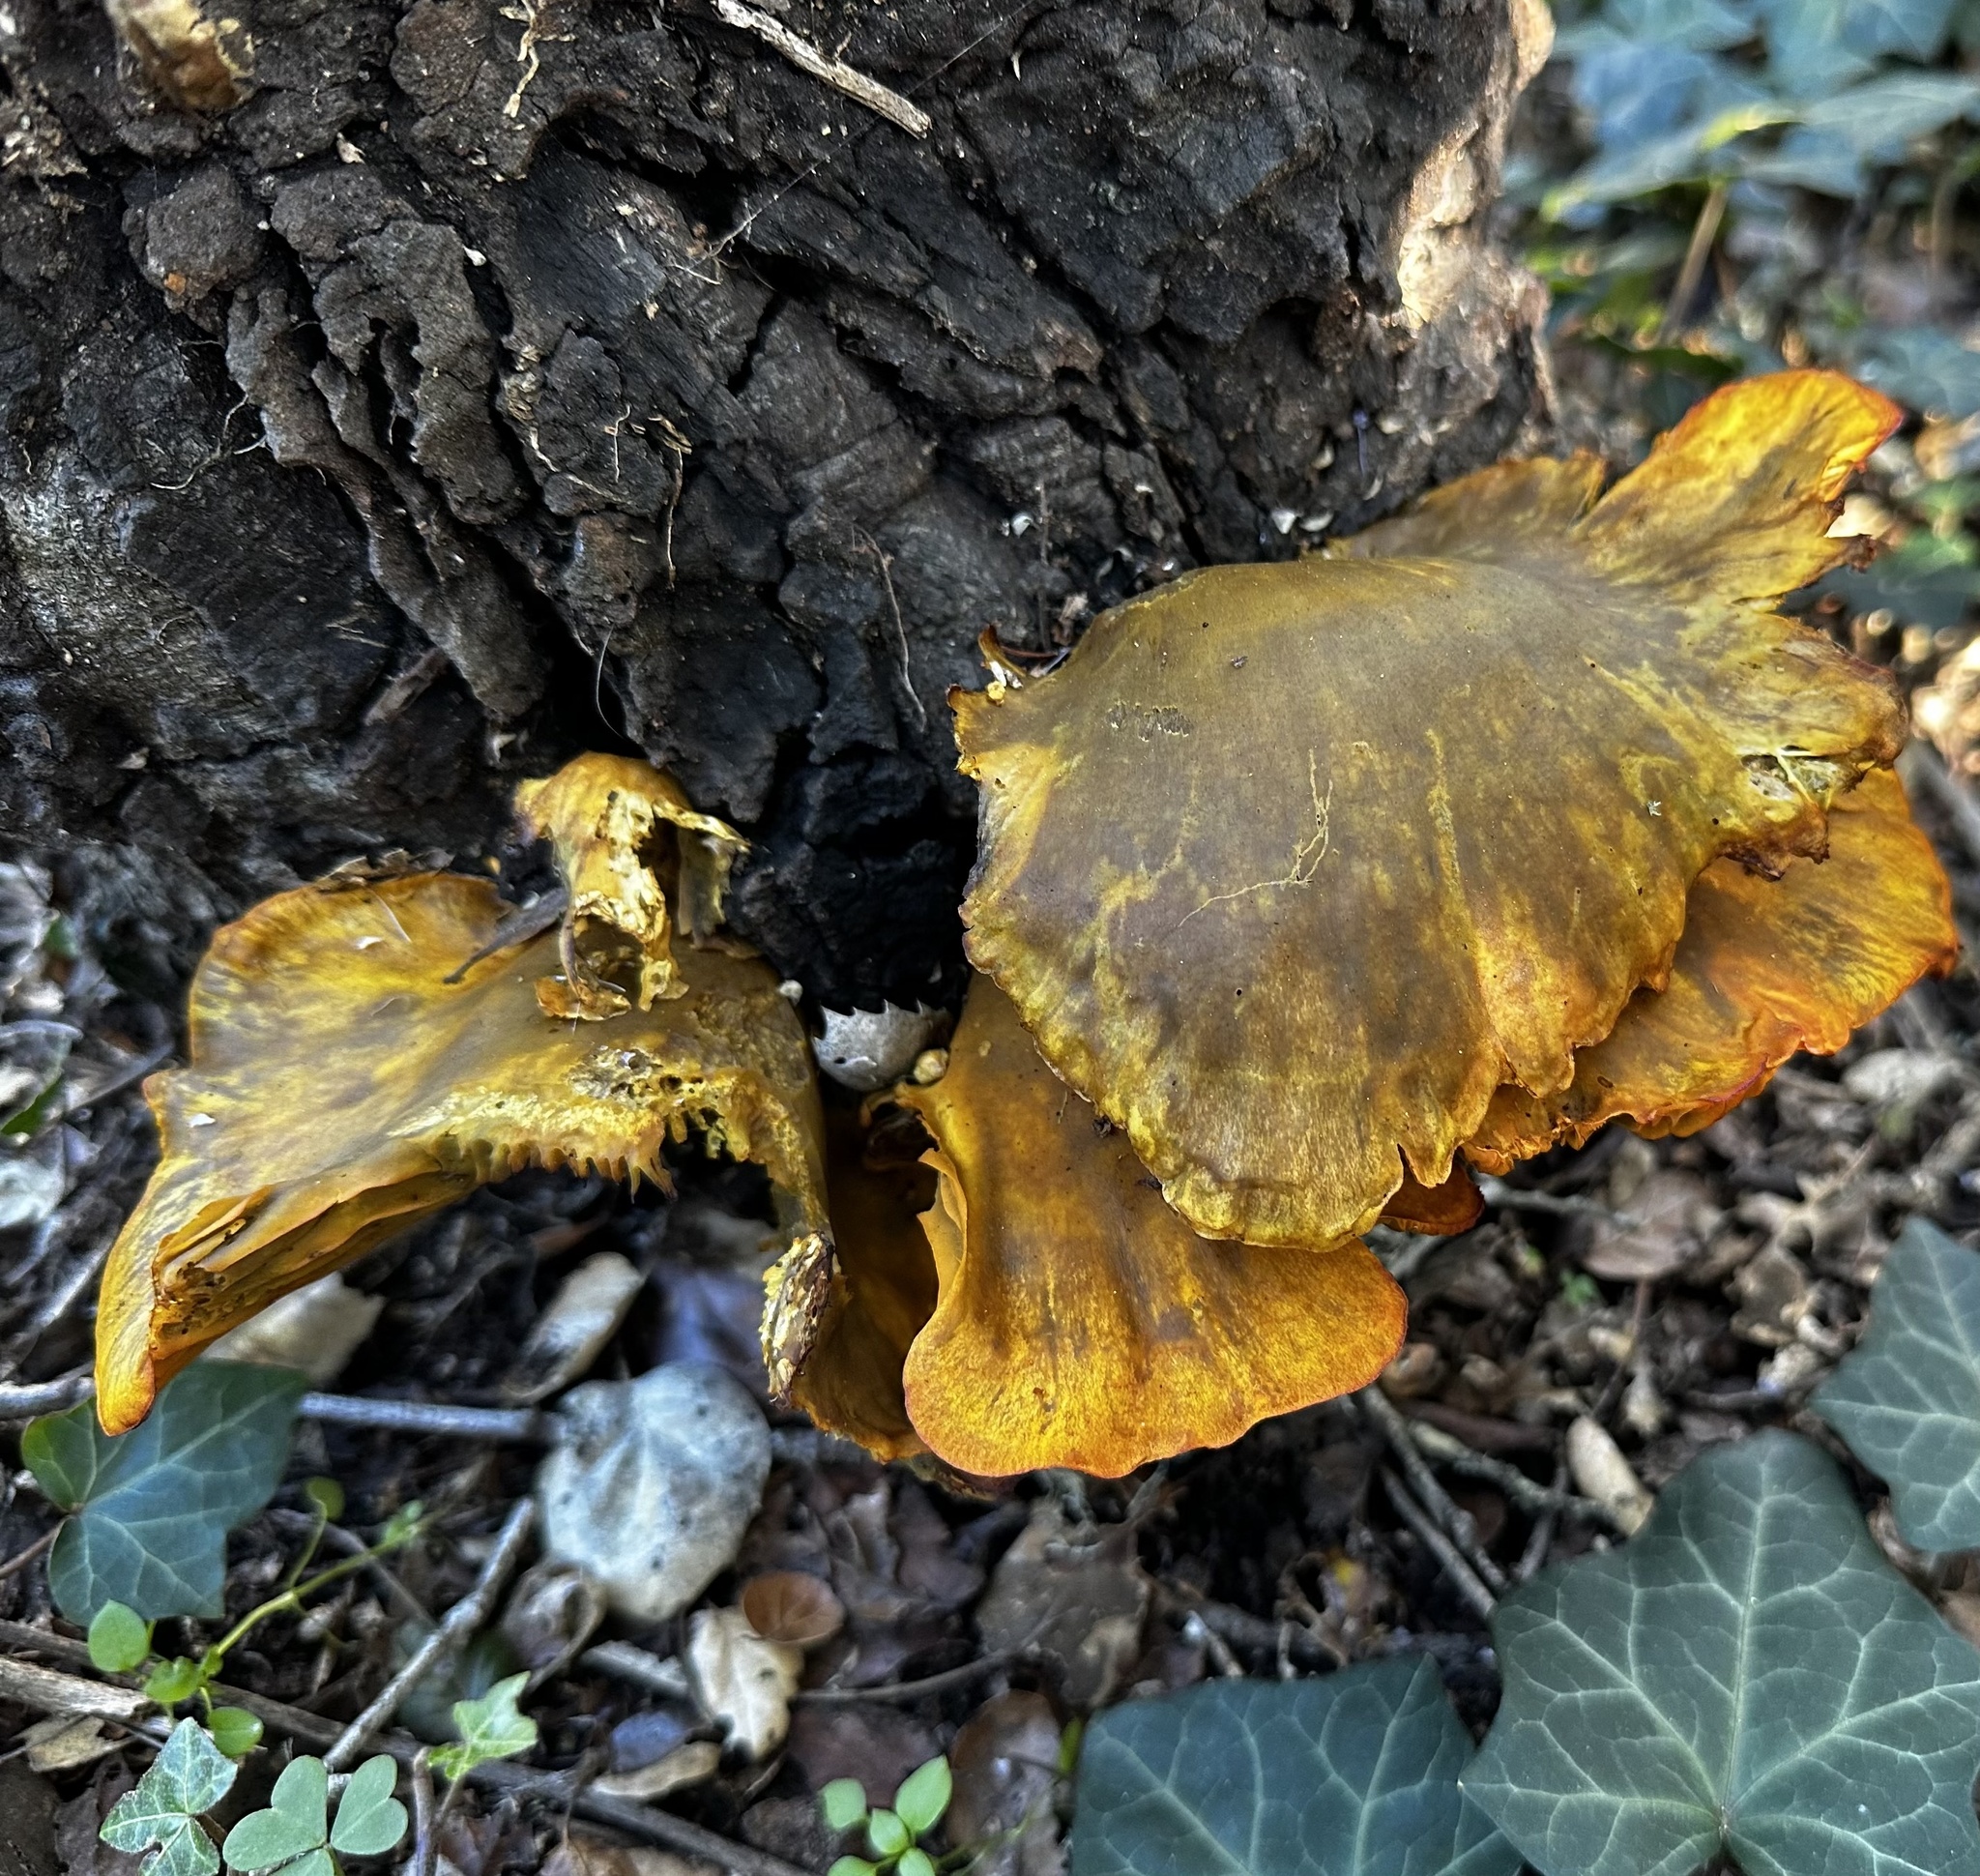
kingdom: Fungi
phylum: Basidiomycota
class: Agaricomycetes
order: Agaricales
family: Omphalotaceae
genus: Omphalotus
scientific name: Omphalotus olivascens
